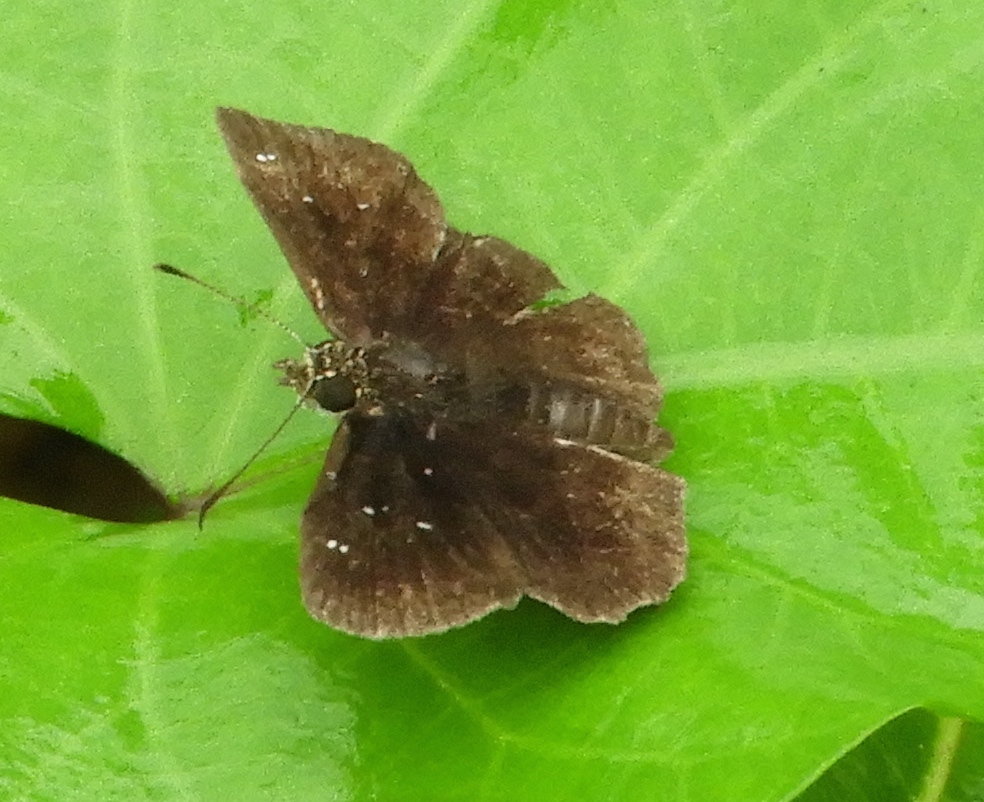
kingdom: Animalia
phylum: Arthropoda
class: Insecta
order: Lepidoptera
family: Hesperiidae
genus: Staphylus
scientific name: Staphylus mazans
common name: Mazans scallopwing
